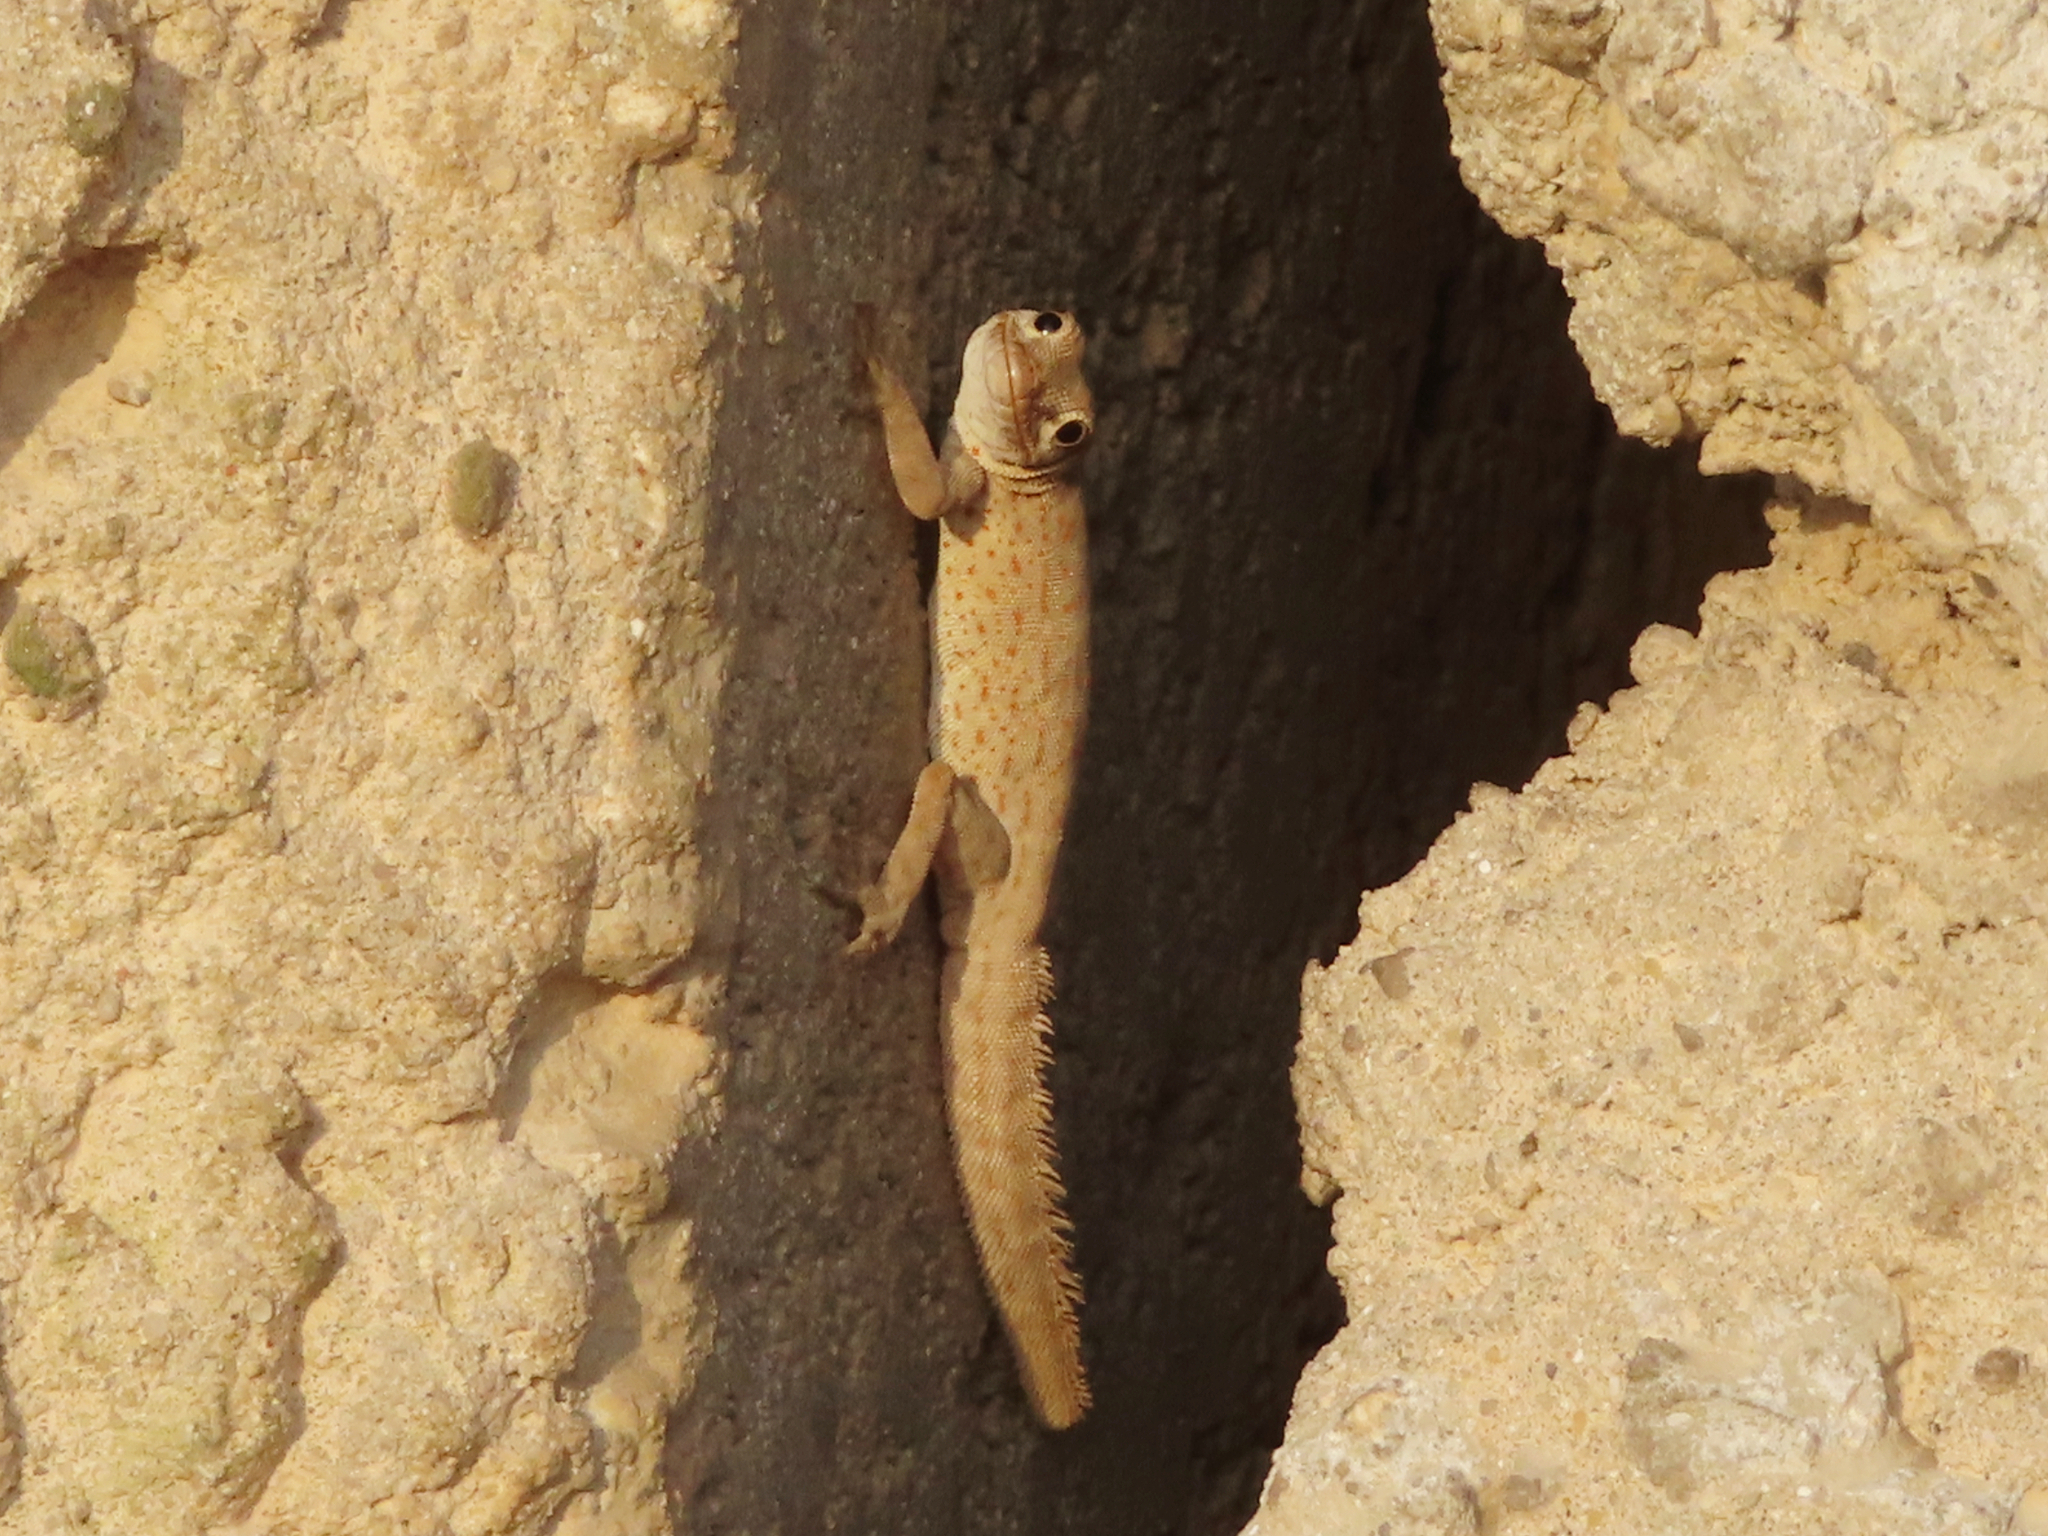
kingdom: Animalia
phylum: Chordata
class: Squamata
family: Sphaerodactylidae
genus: Pristurus
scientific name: Pristurus rupestris
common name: Blanford’s semaphore gecko
